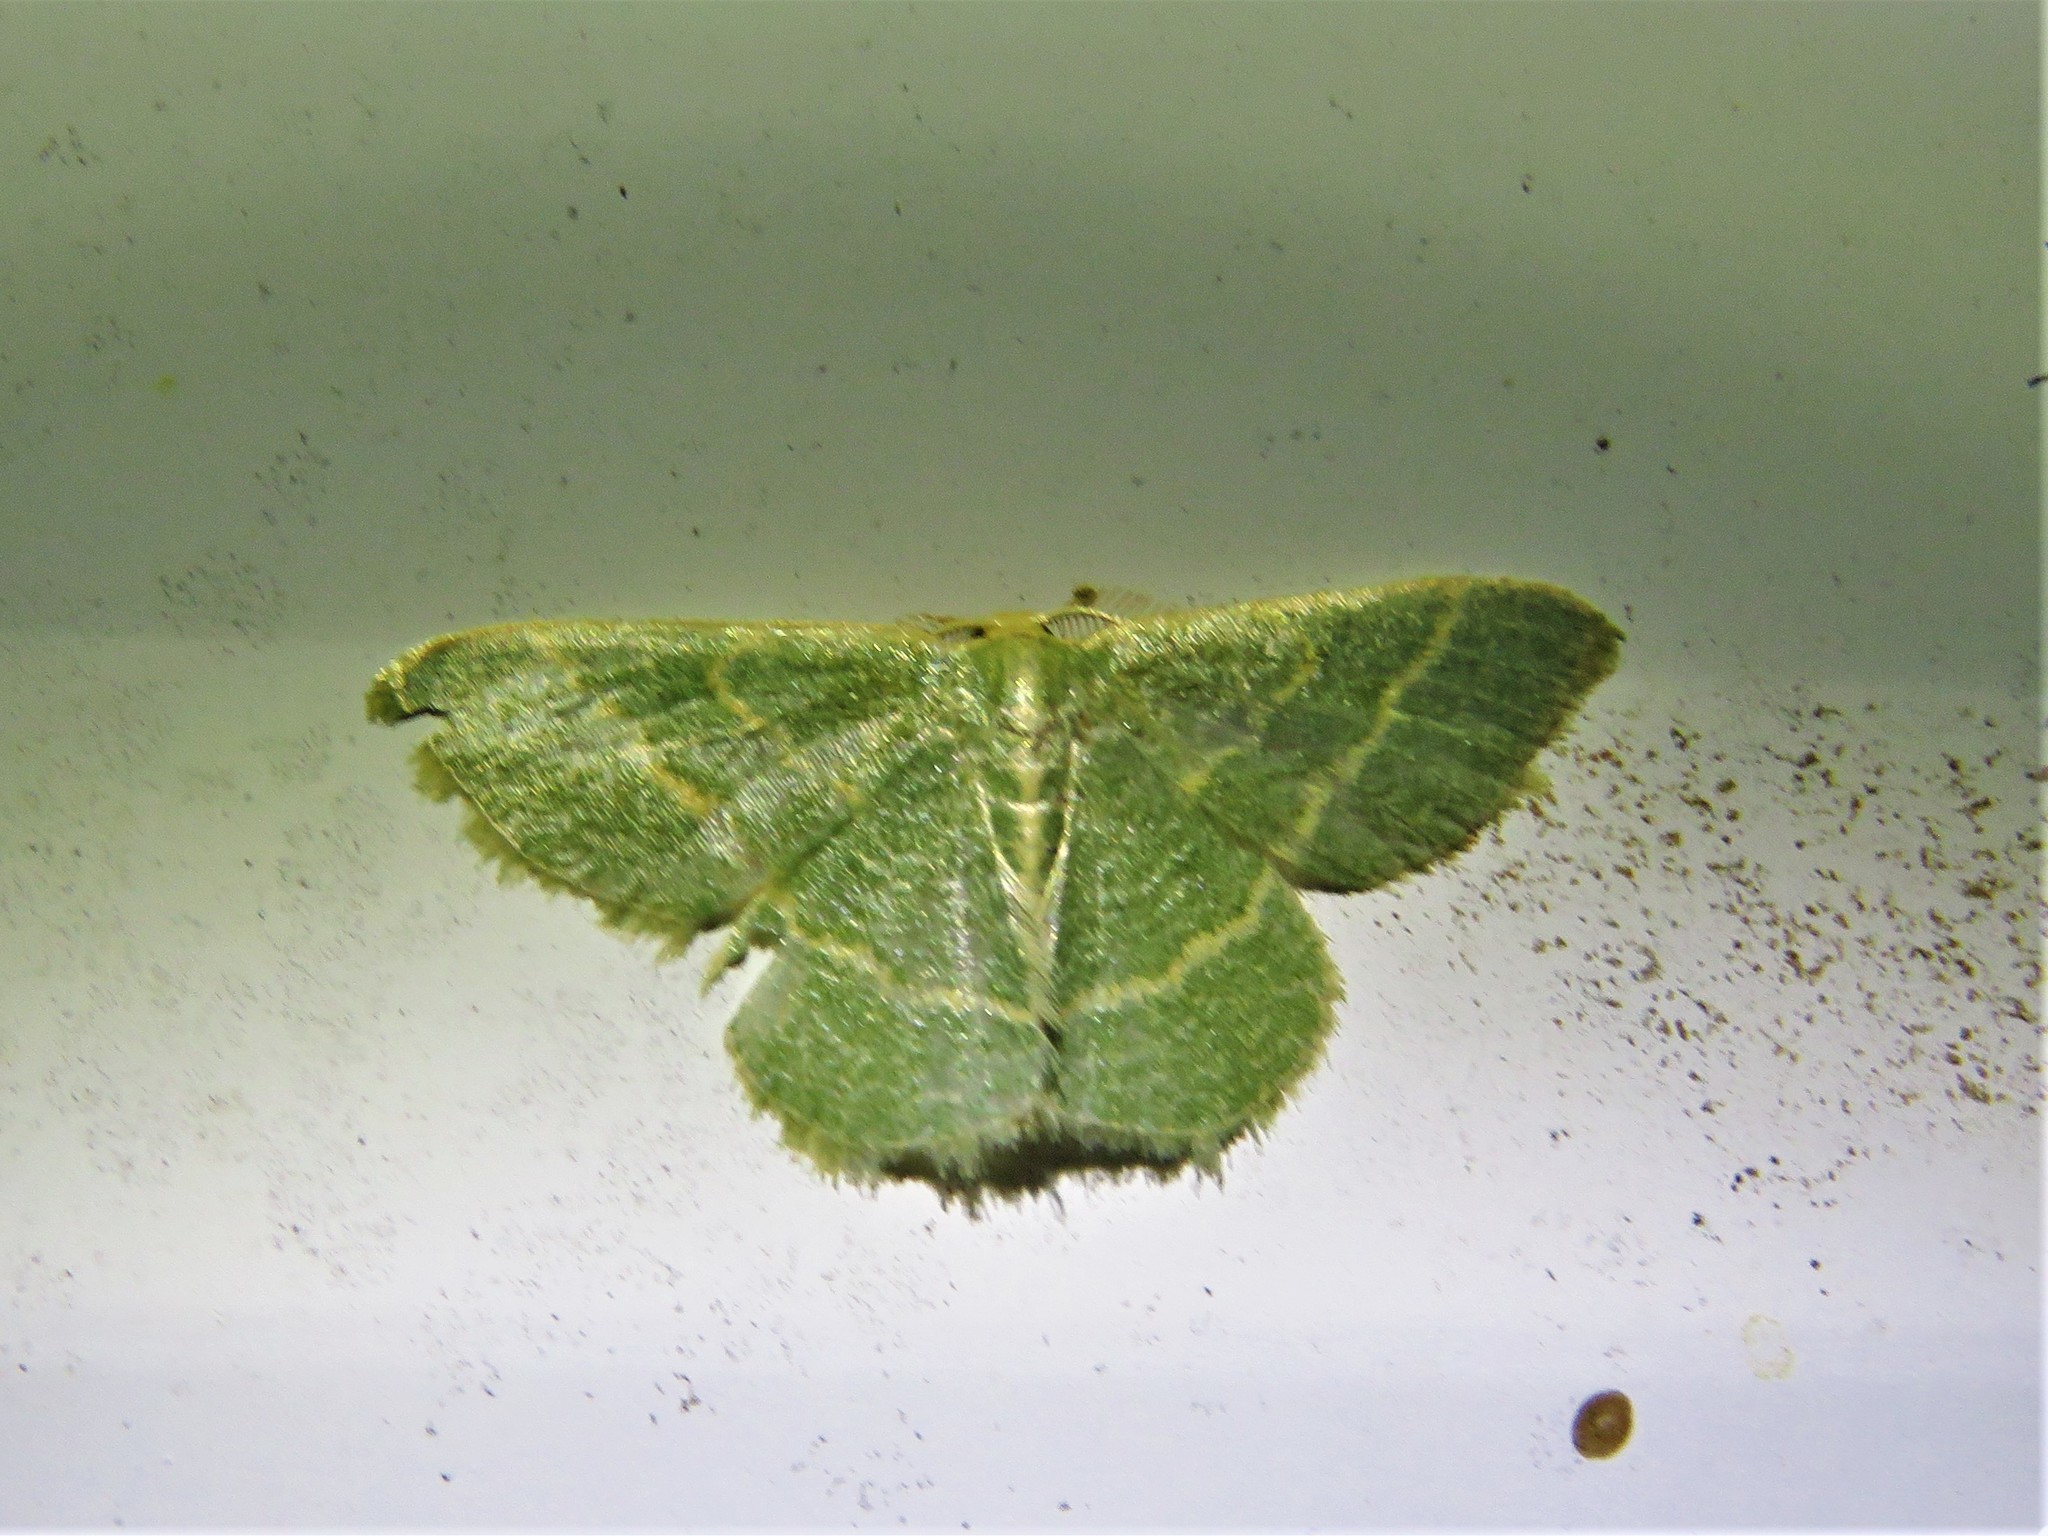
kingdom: Animalia
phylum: Arthropoda
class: Insecta
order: Lepidoptera
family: Geometridae
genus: Chlorochlamys
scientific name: Chlorochlamys appellaria
